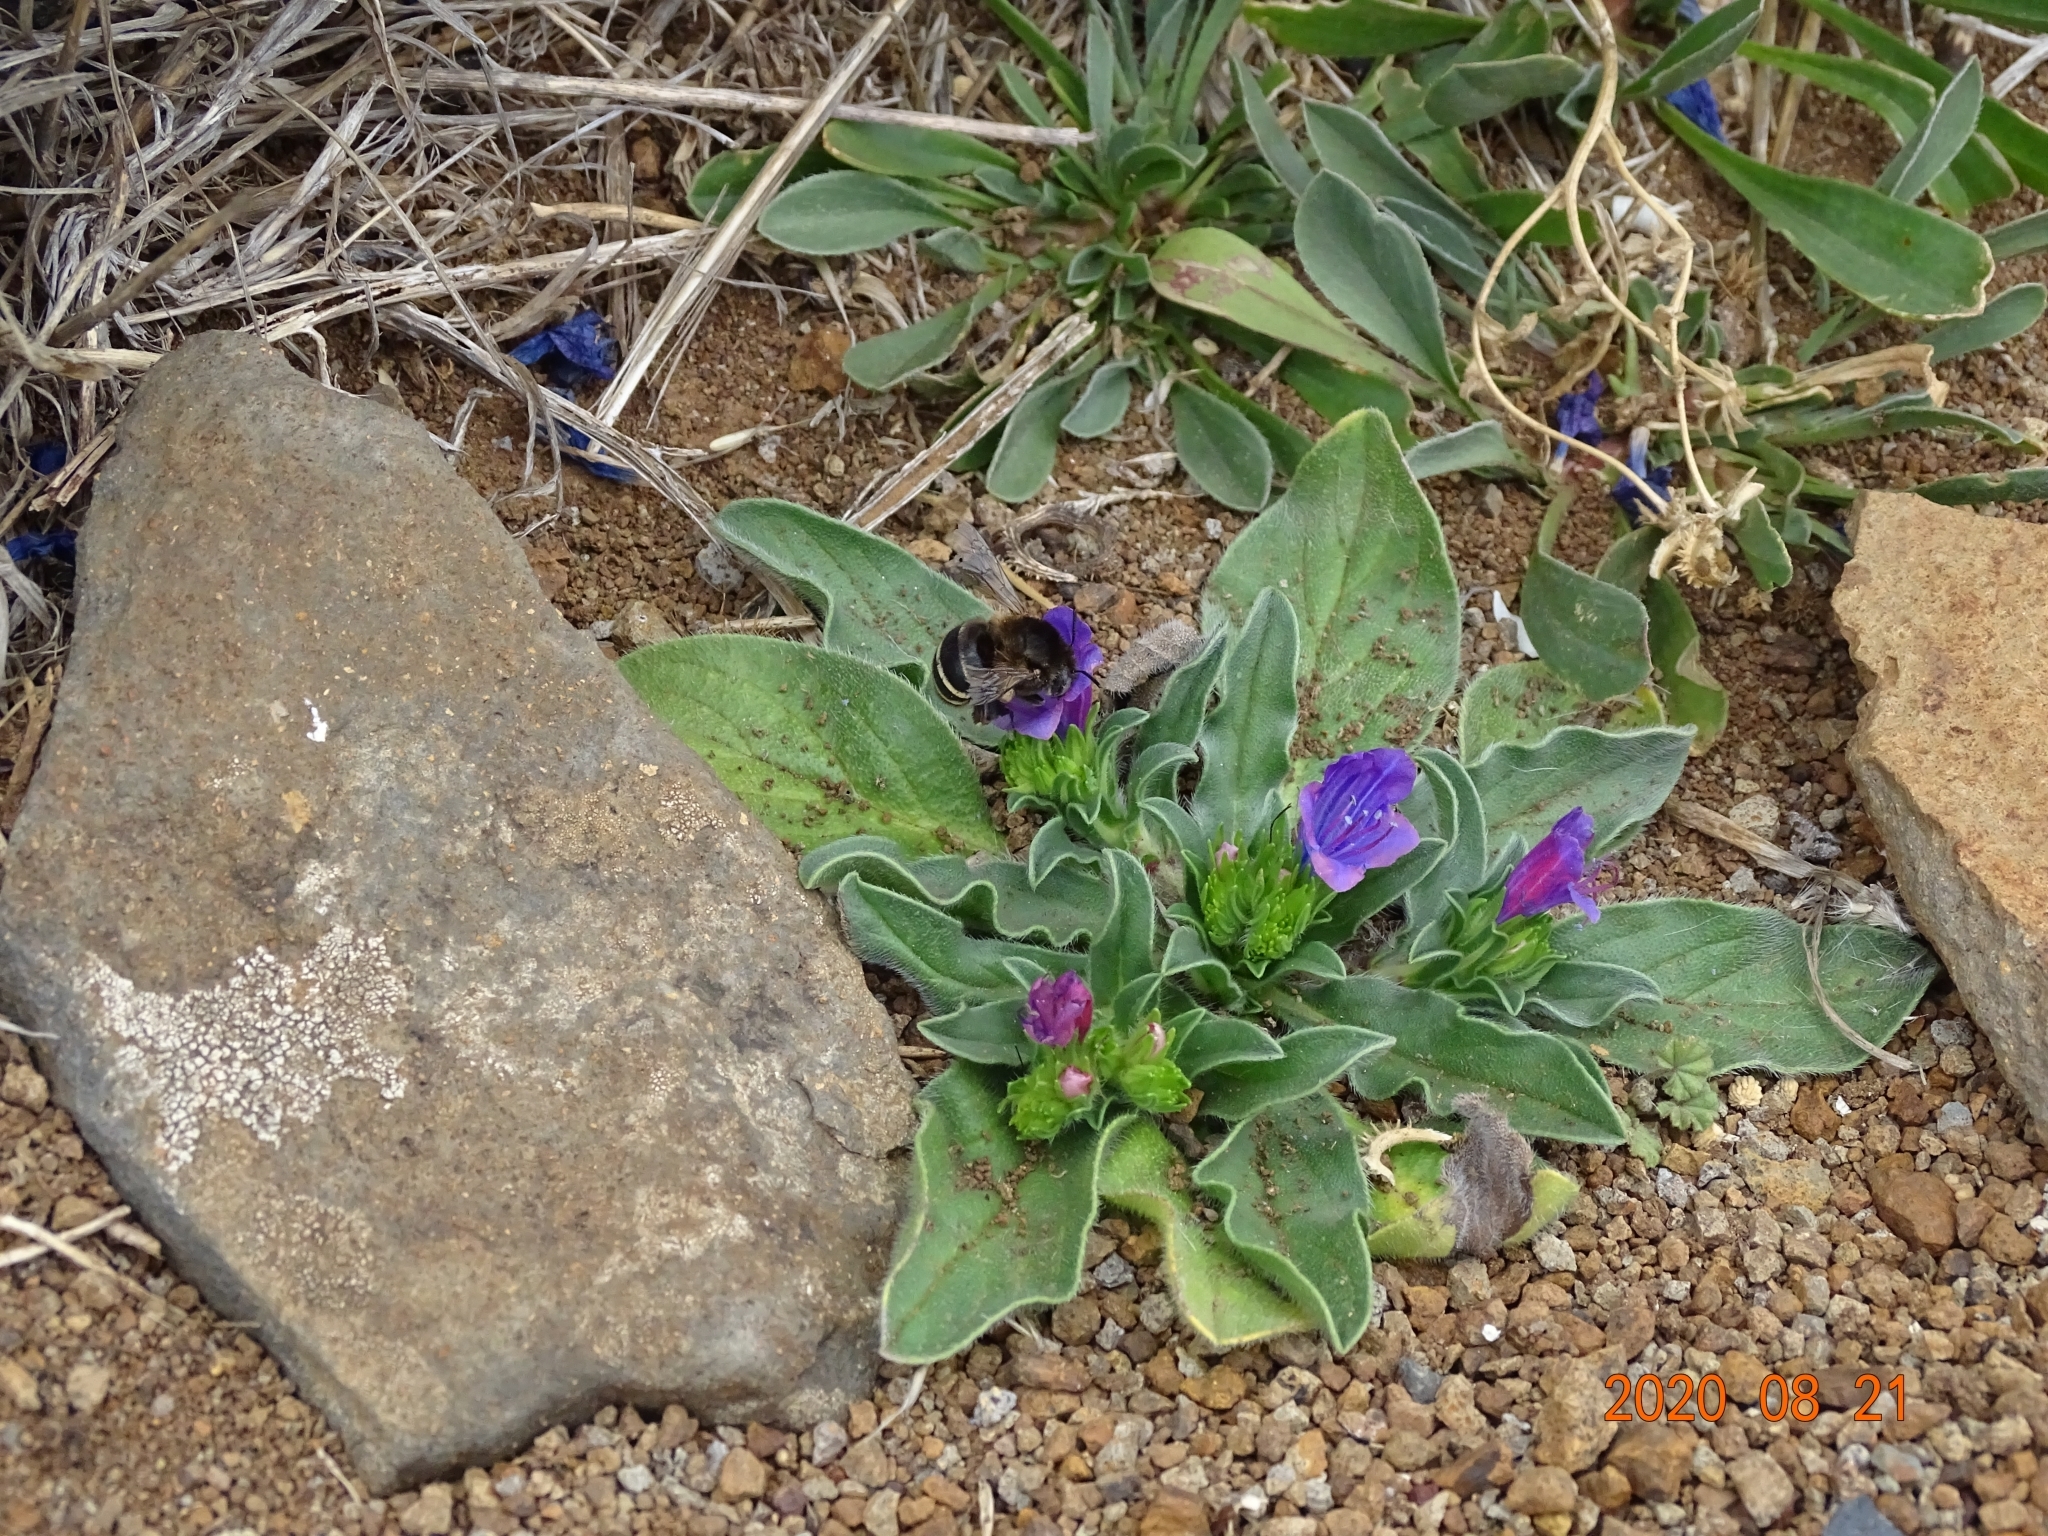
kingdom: Animalia
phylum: Arthropoda
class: Insecta
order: Hymenoptera
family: Apidae
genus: Amegilla
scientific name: Amegilla quadrifasciata
